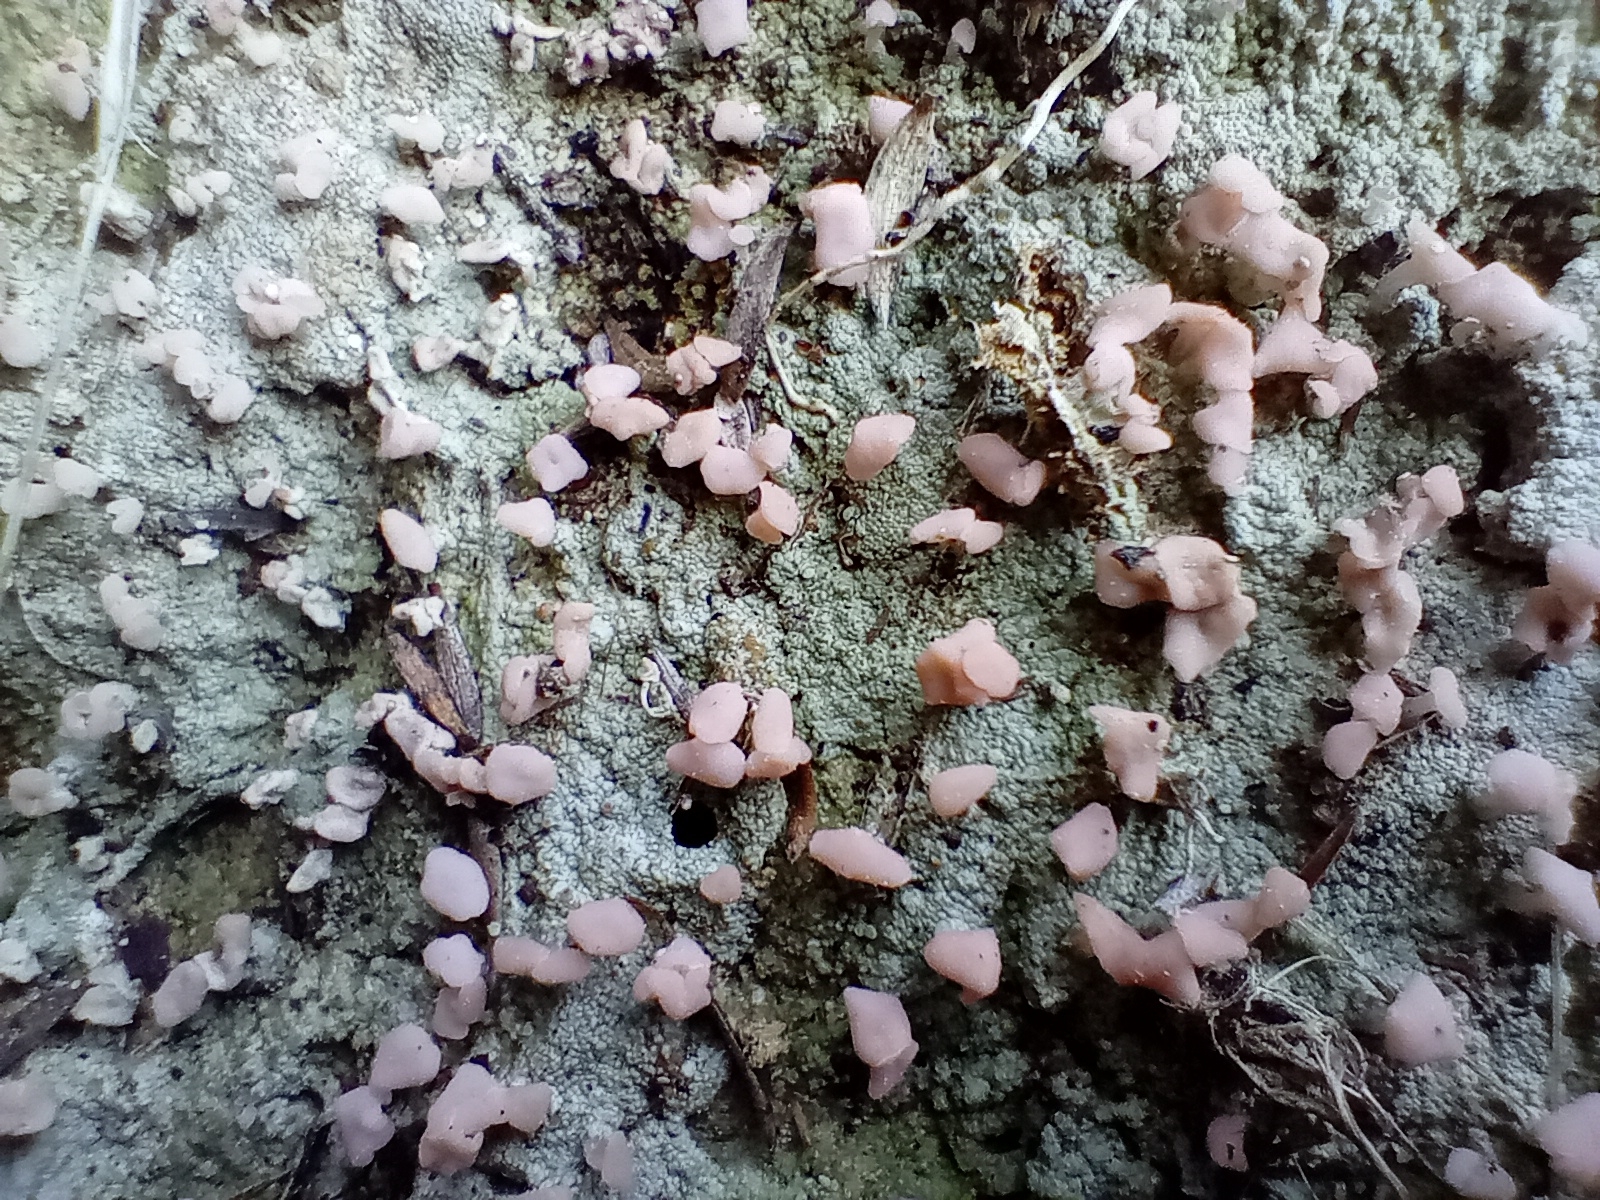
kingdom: Fungi
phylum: Ascomycota
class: Lecanoromycetes
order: Baeomycetales
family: Baeomycetaceae
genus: Baeomyces
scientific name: Baeomyces heteromorphus
